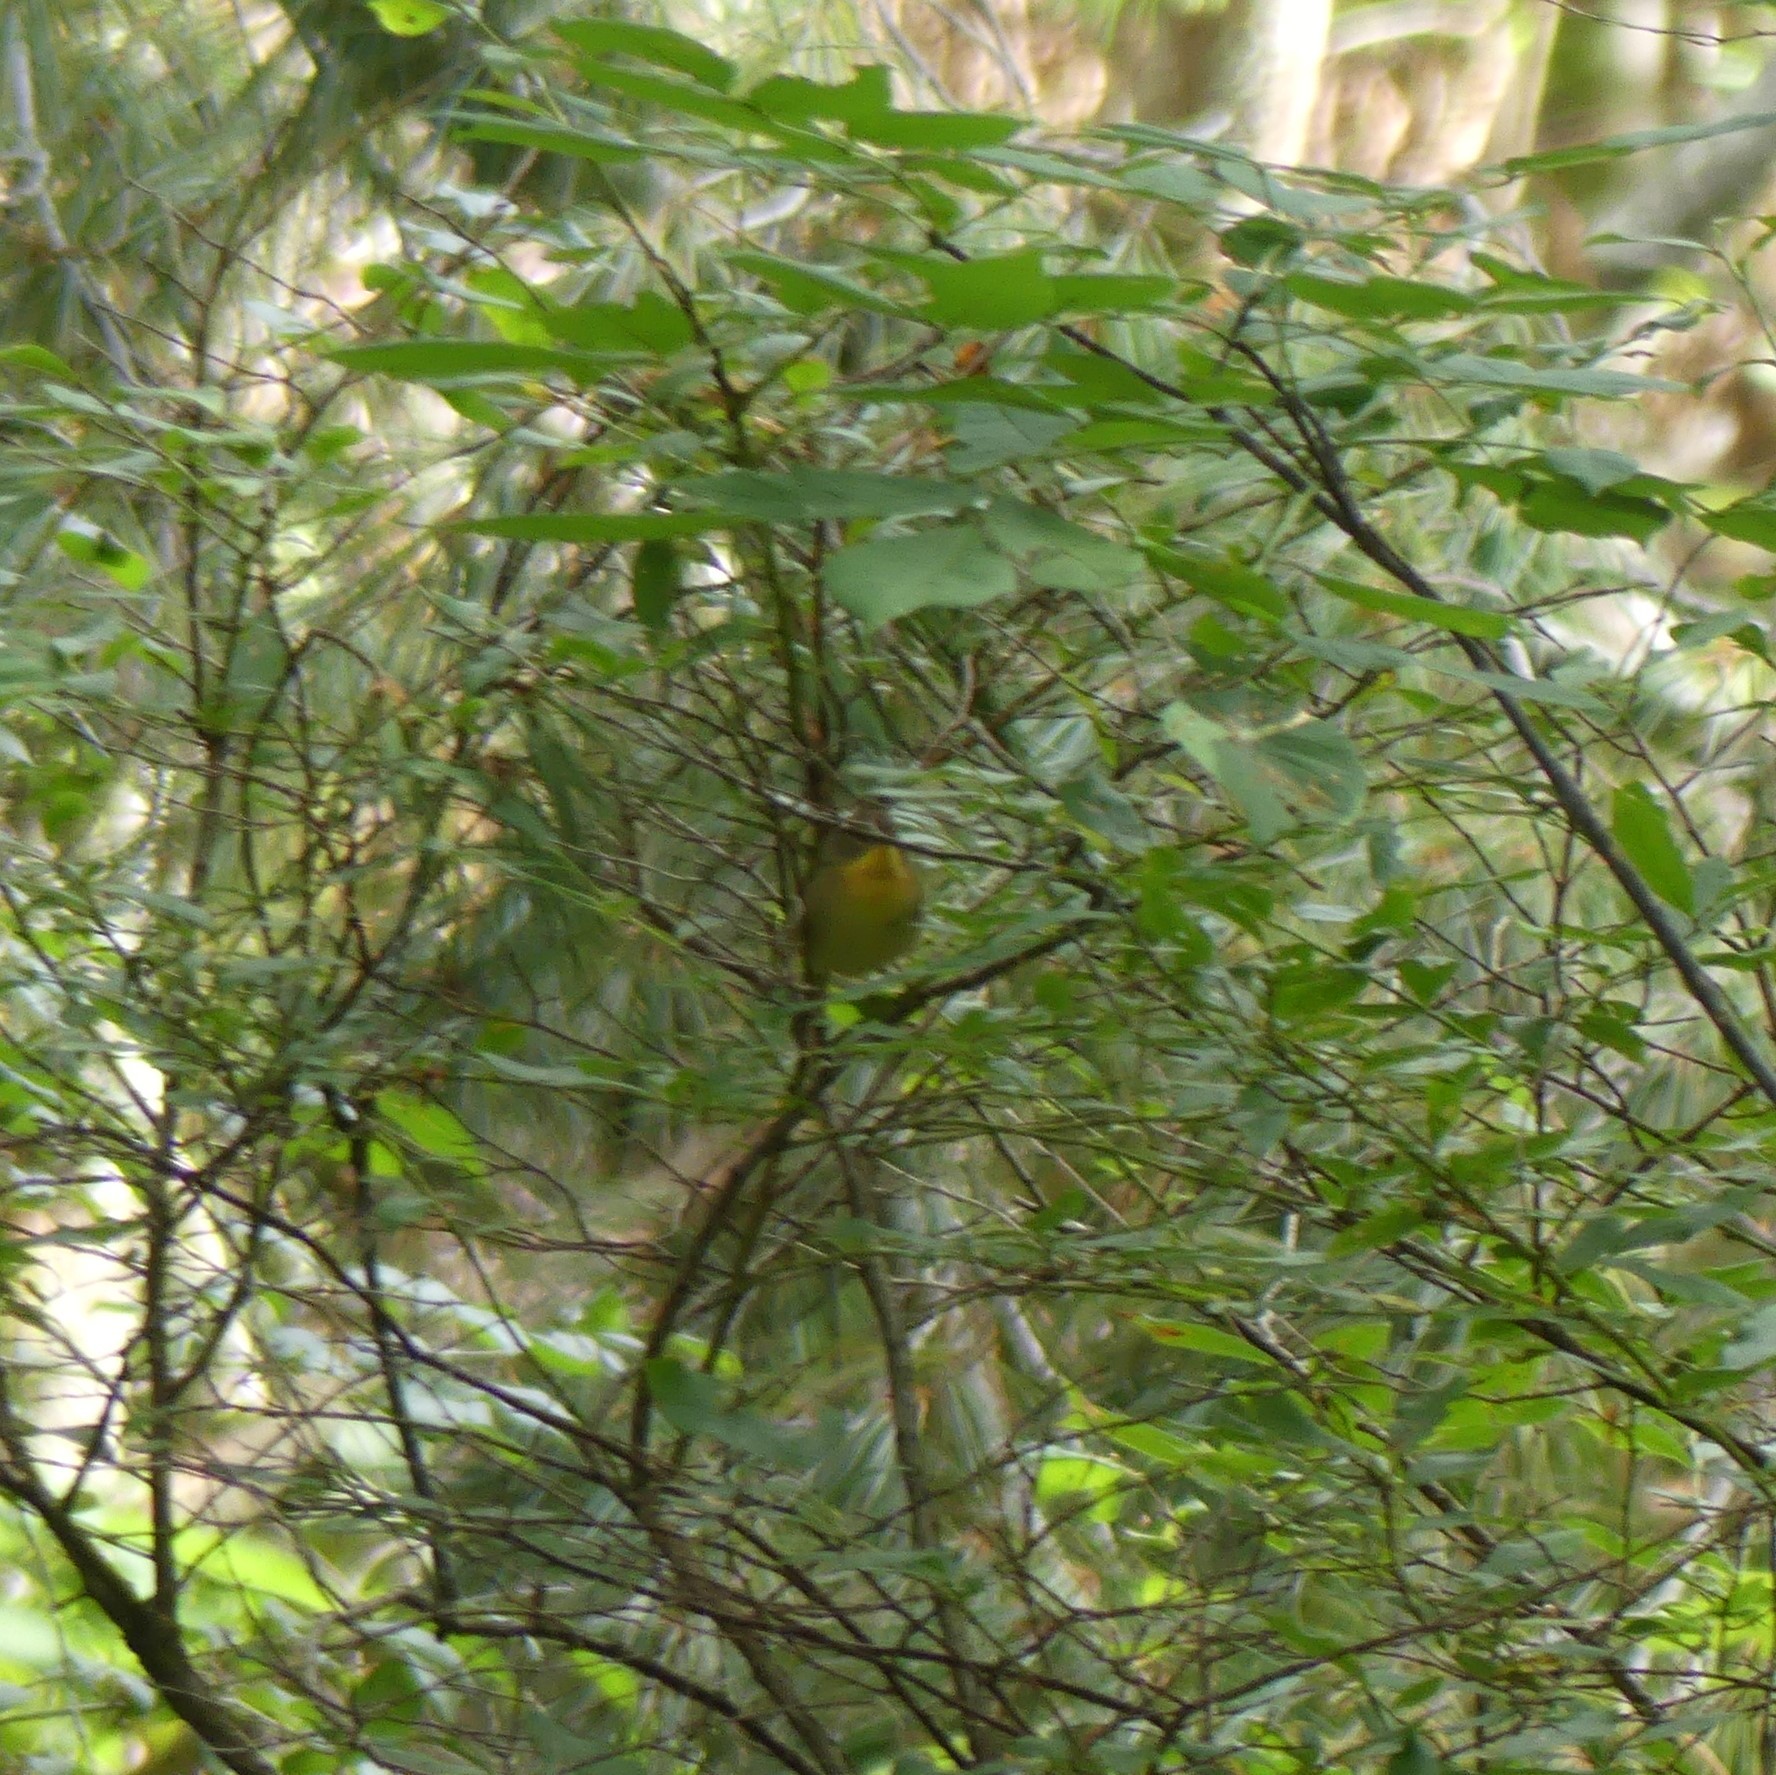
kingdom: Animalia
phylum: Chordata
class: Aves
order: Passeriformes
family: Parulidae
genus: Setophaga
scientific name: Setophaga americana
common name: Northern parula
